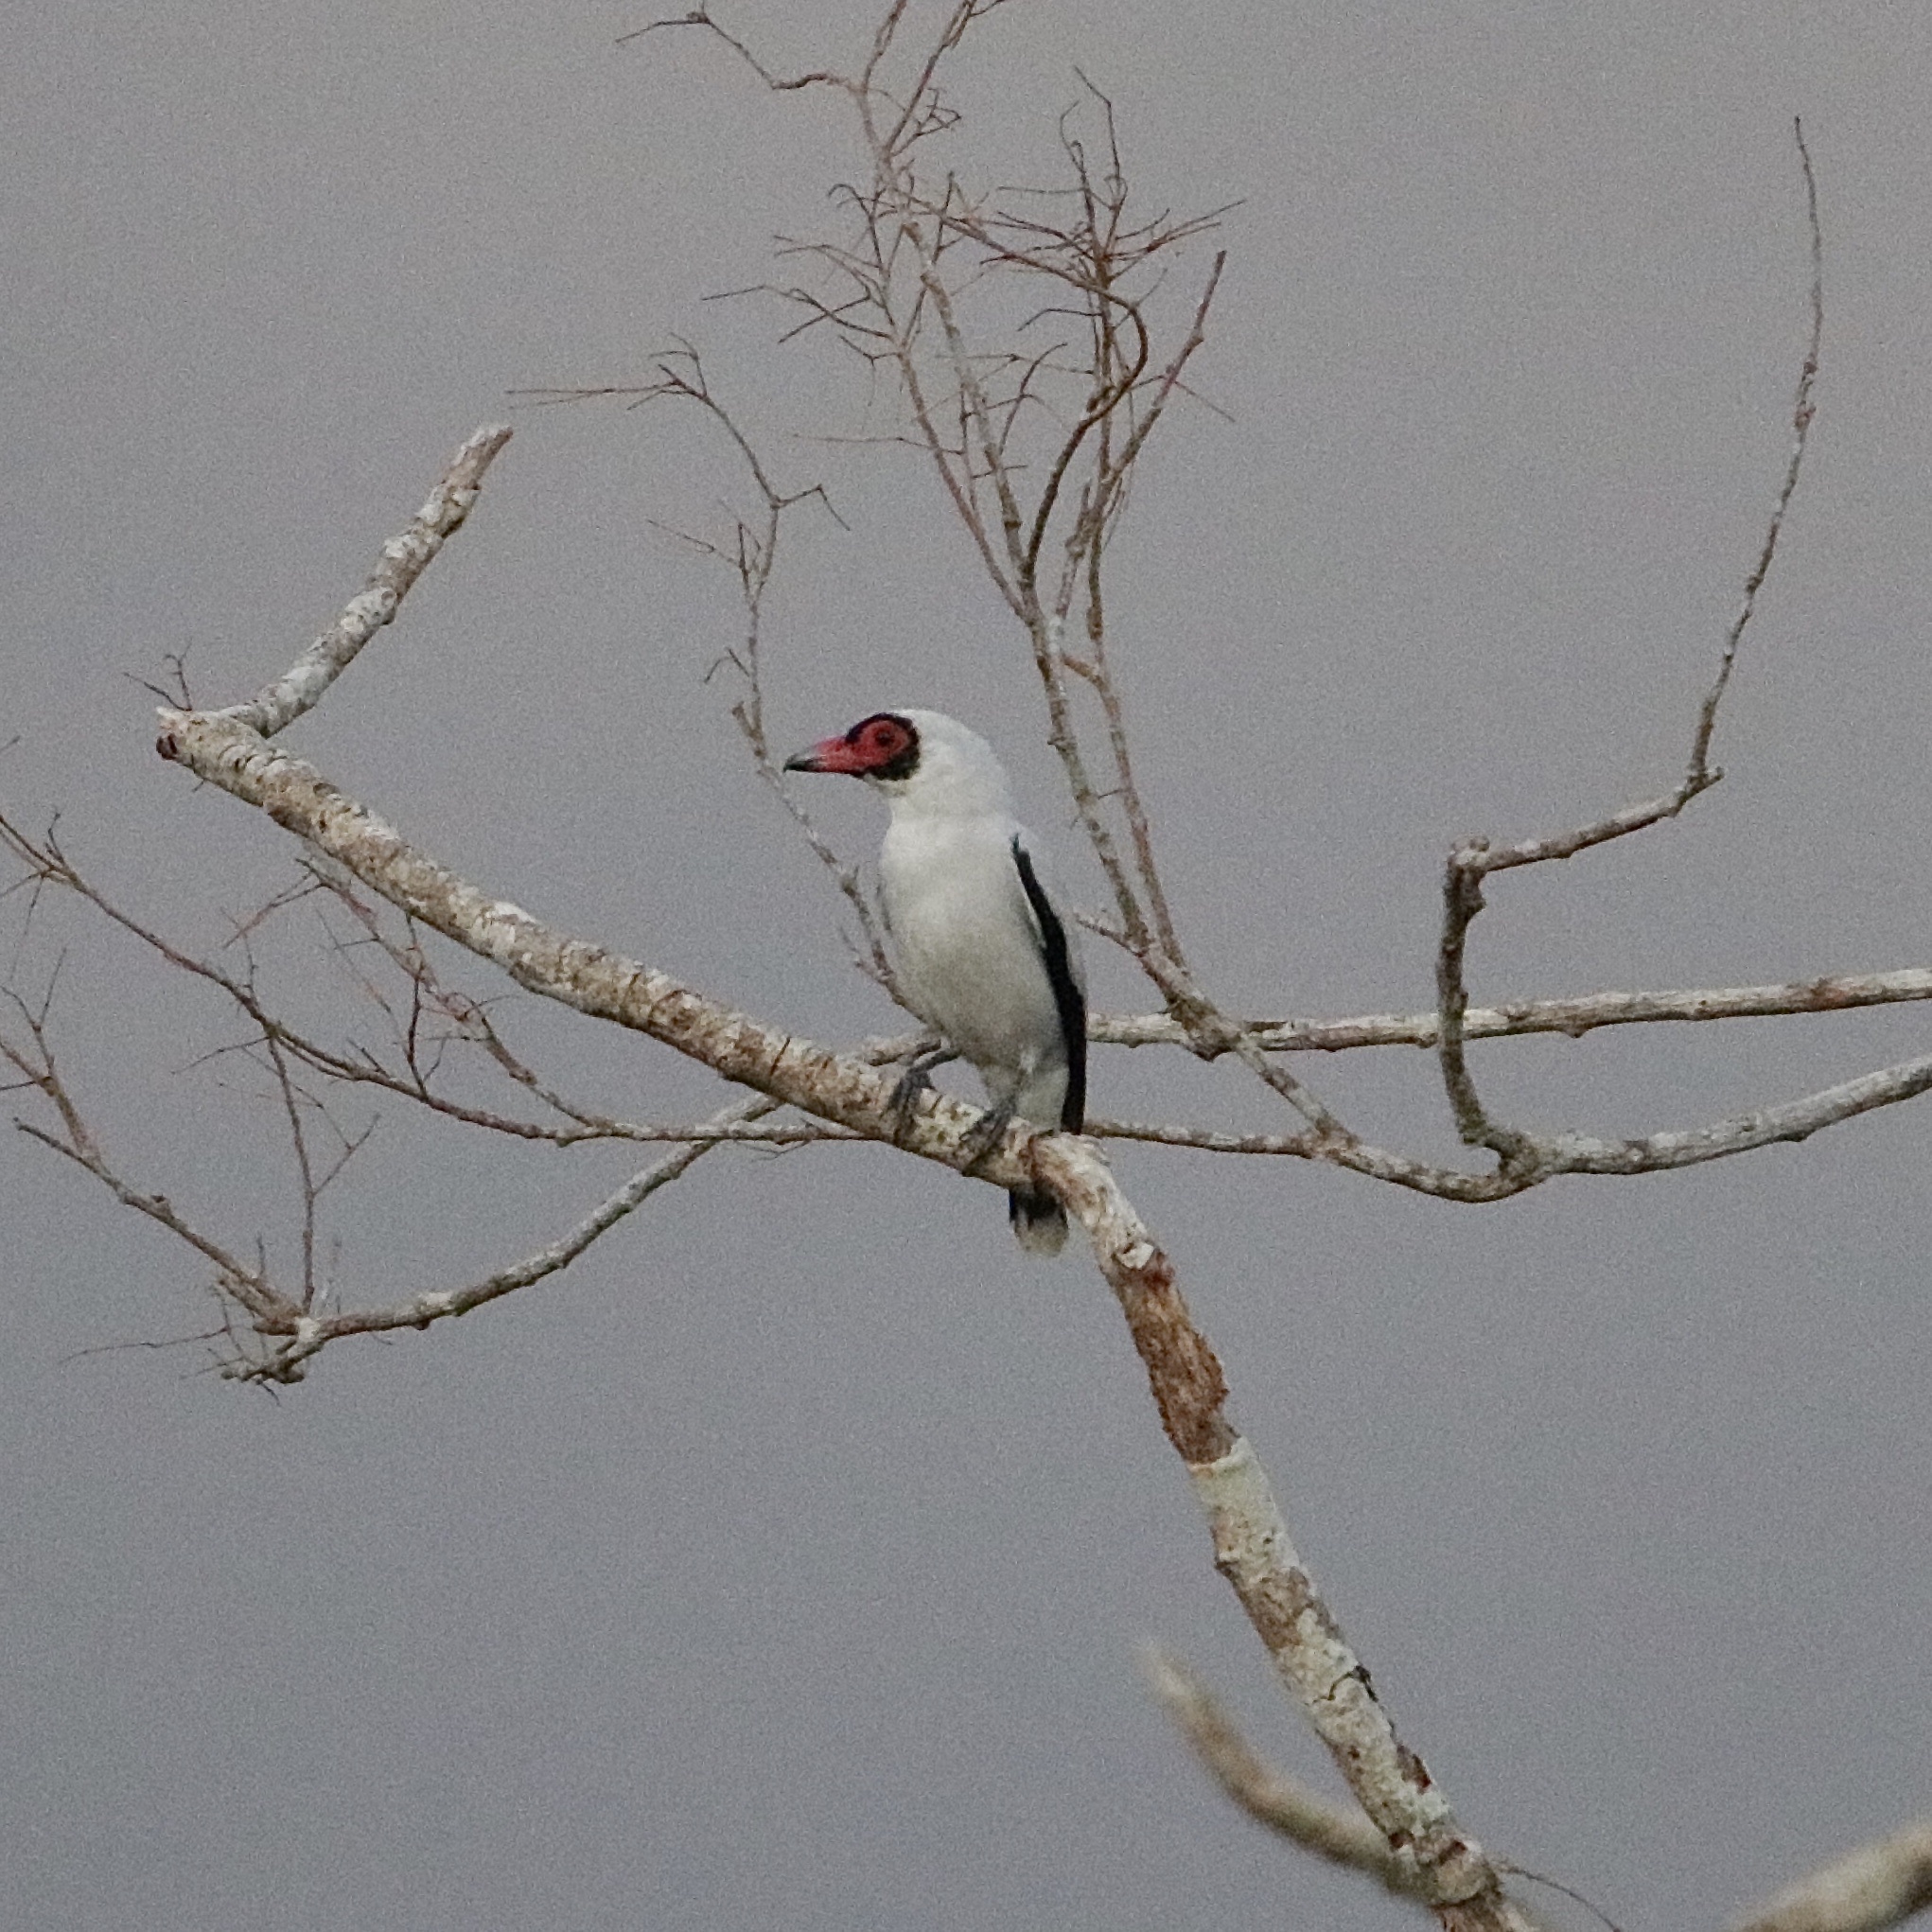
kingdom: Animalia
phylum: Chordata
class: Aves
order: Passeriformes
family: Cotingidae
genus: Tityra
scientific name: Tityra semifasciata
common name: Masked tityra
